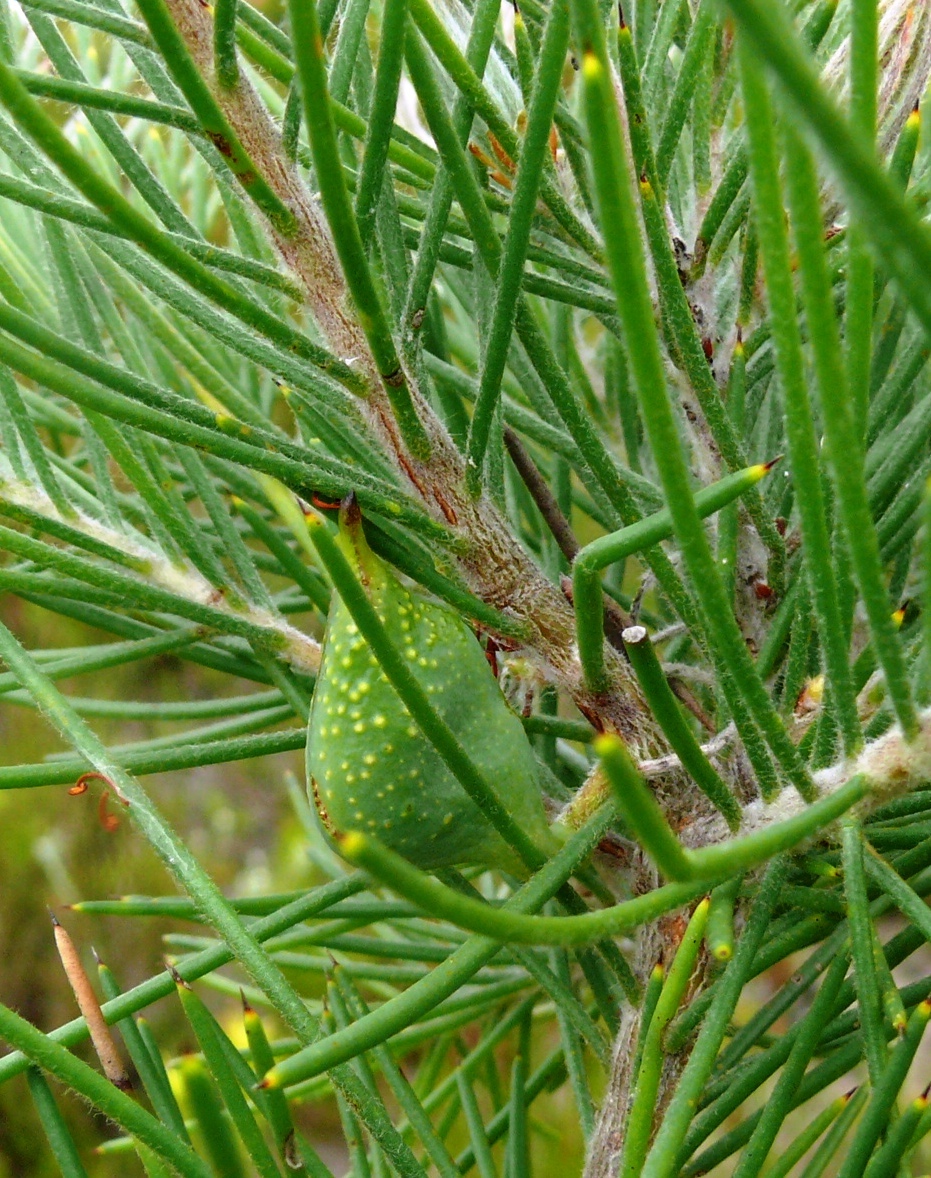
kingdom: Plantae
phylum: Tracheophyta
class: Magnoliopsida
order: Proteales
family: Proteaceae
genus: Hakea
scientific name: Hakea gibbosa
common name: Rock hakea
